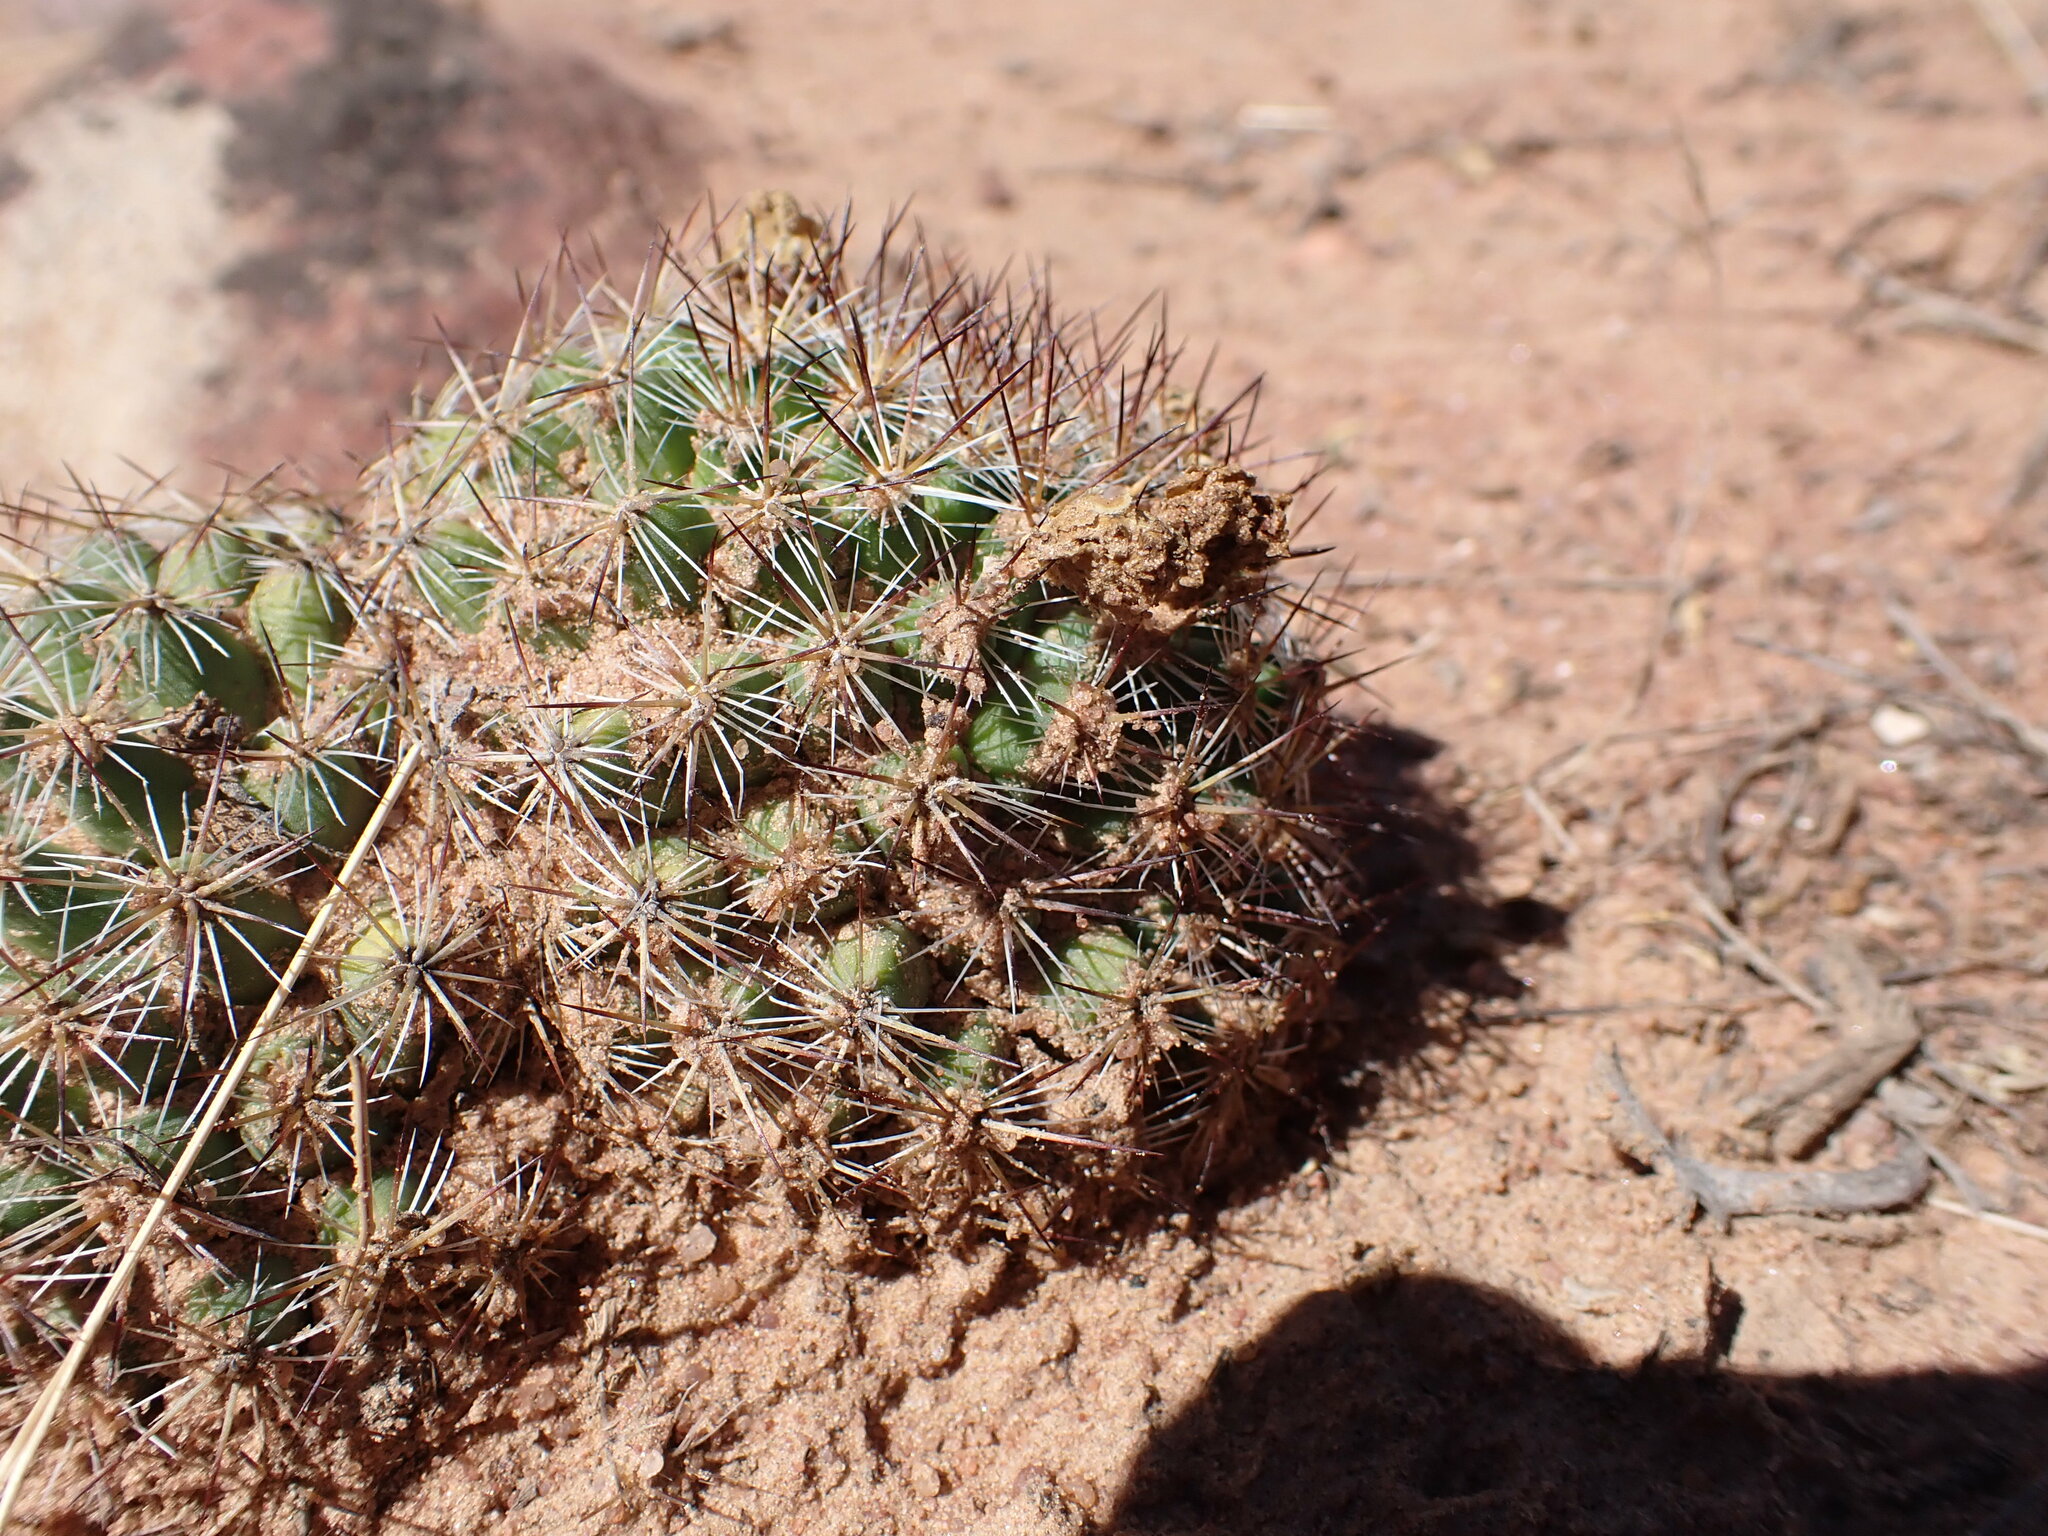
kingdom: Plantae
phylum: Tracheophyta
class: Magnoliopsida
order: Caryophyllales
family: Cactaceae
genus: Pediocactus
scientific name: Pediocactus simpsonii
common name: Simpson's hedgehog cactus
